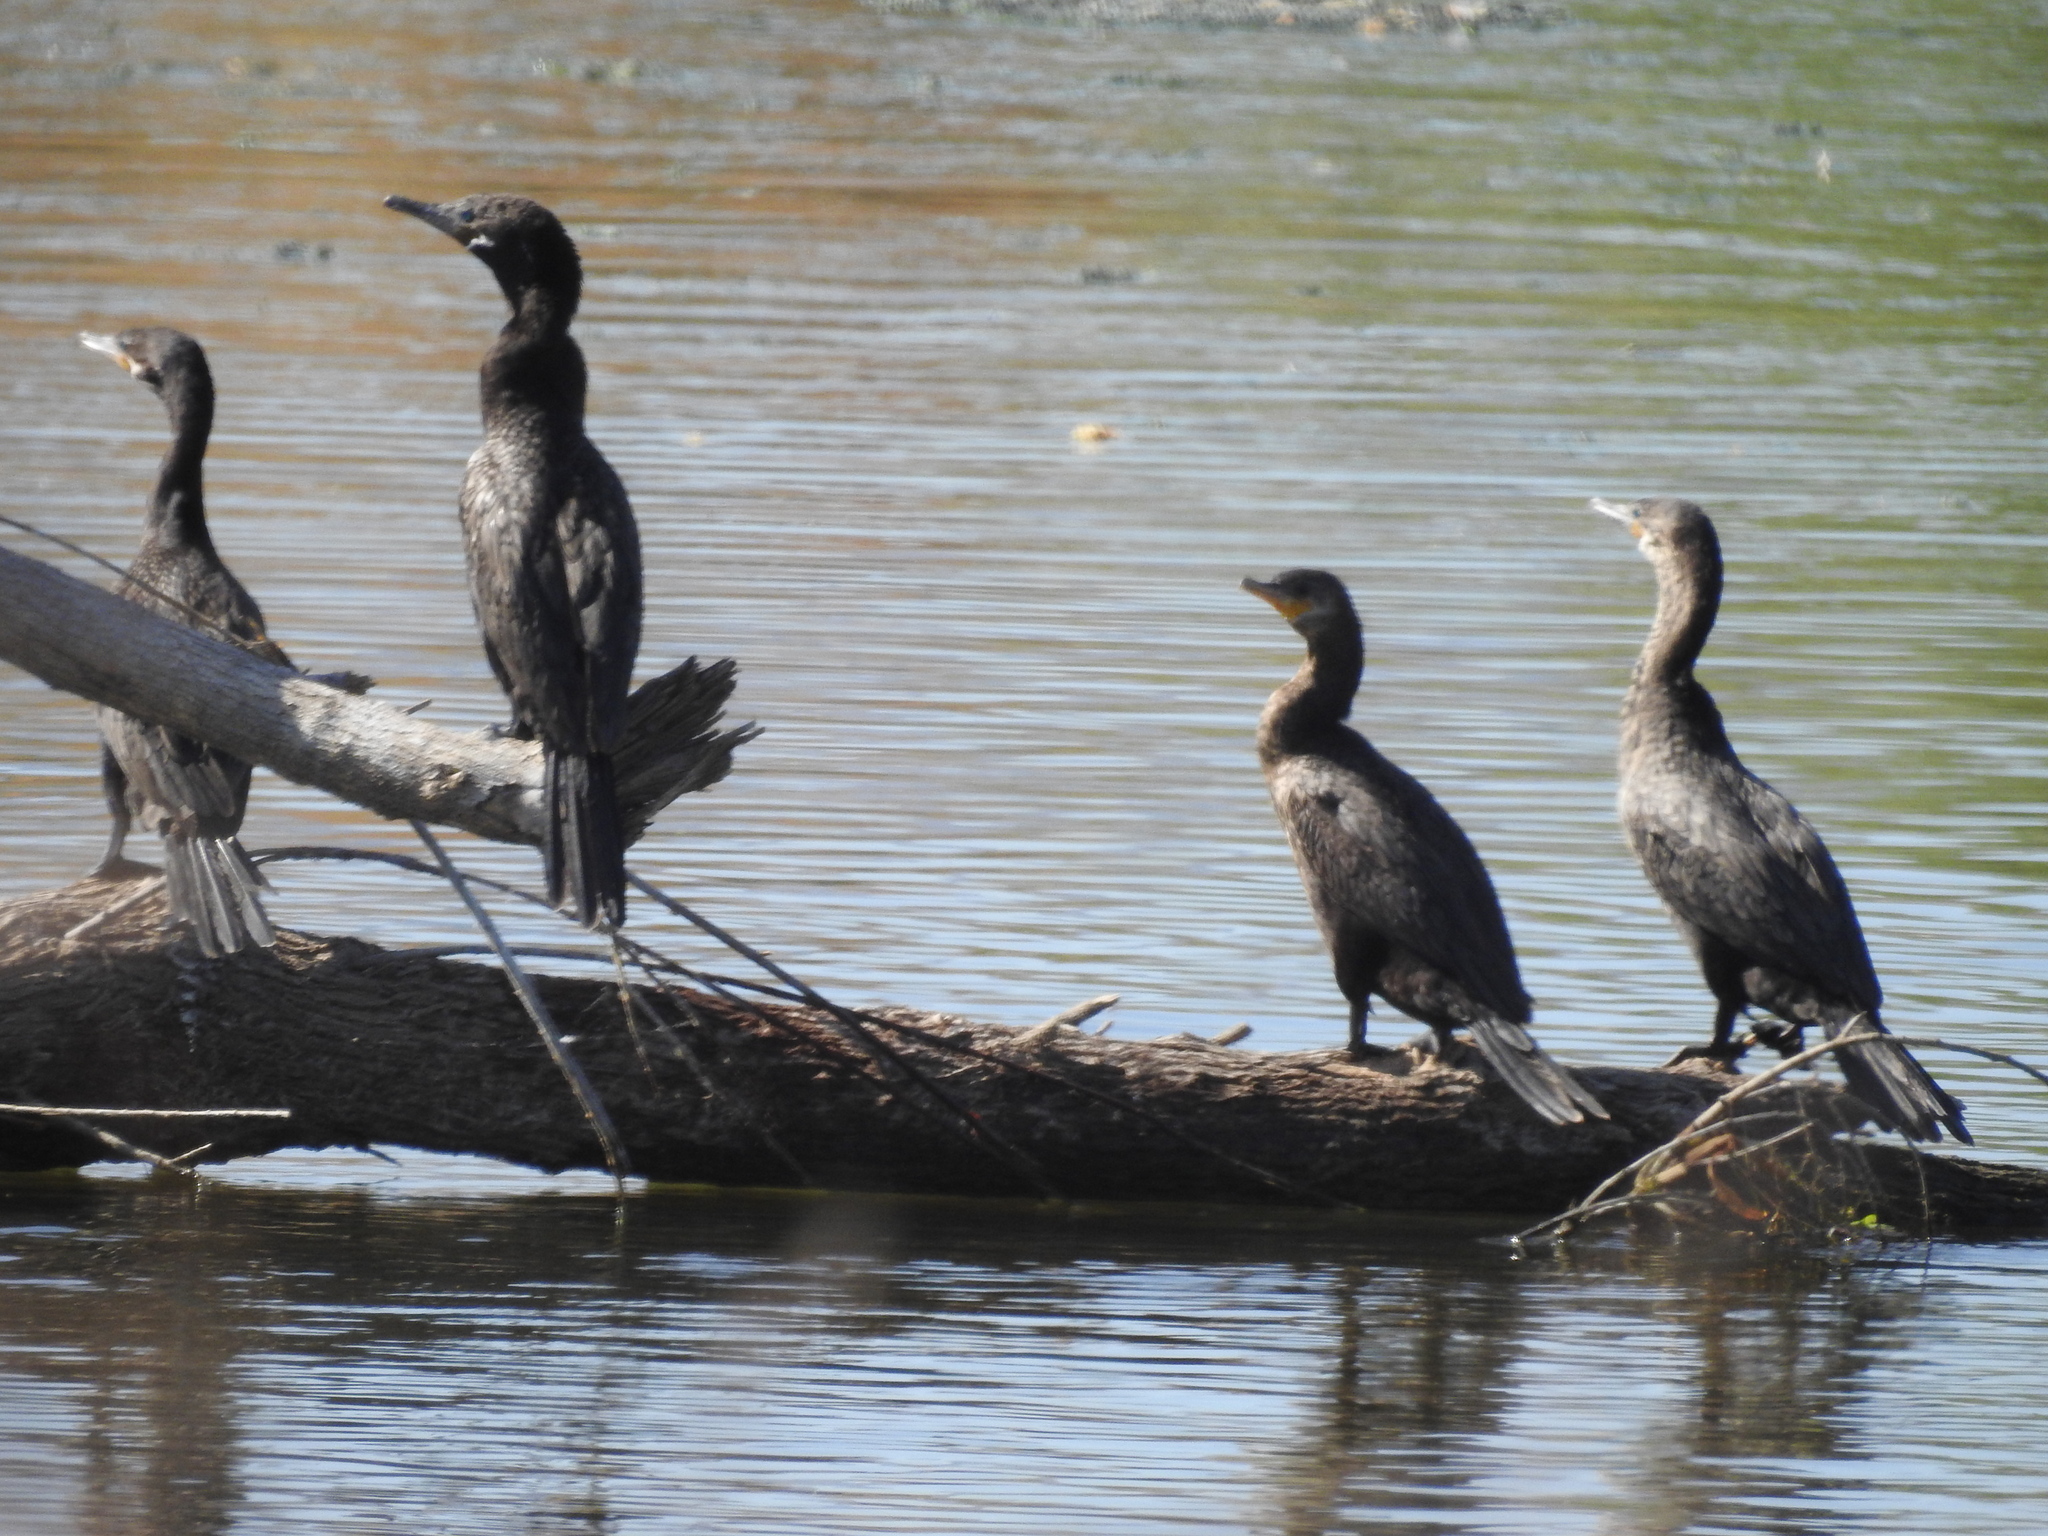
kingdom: Animalia
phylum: Chordata
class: Aves
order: Suliformes
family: Phalacrocoracidae
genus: Phalacrocorax
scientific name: Phalacrocorax brasilianus
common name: Neotropic cormorant
